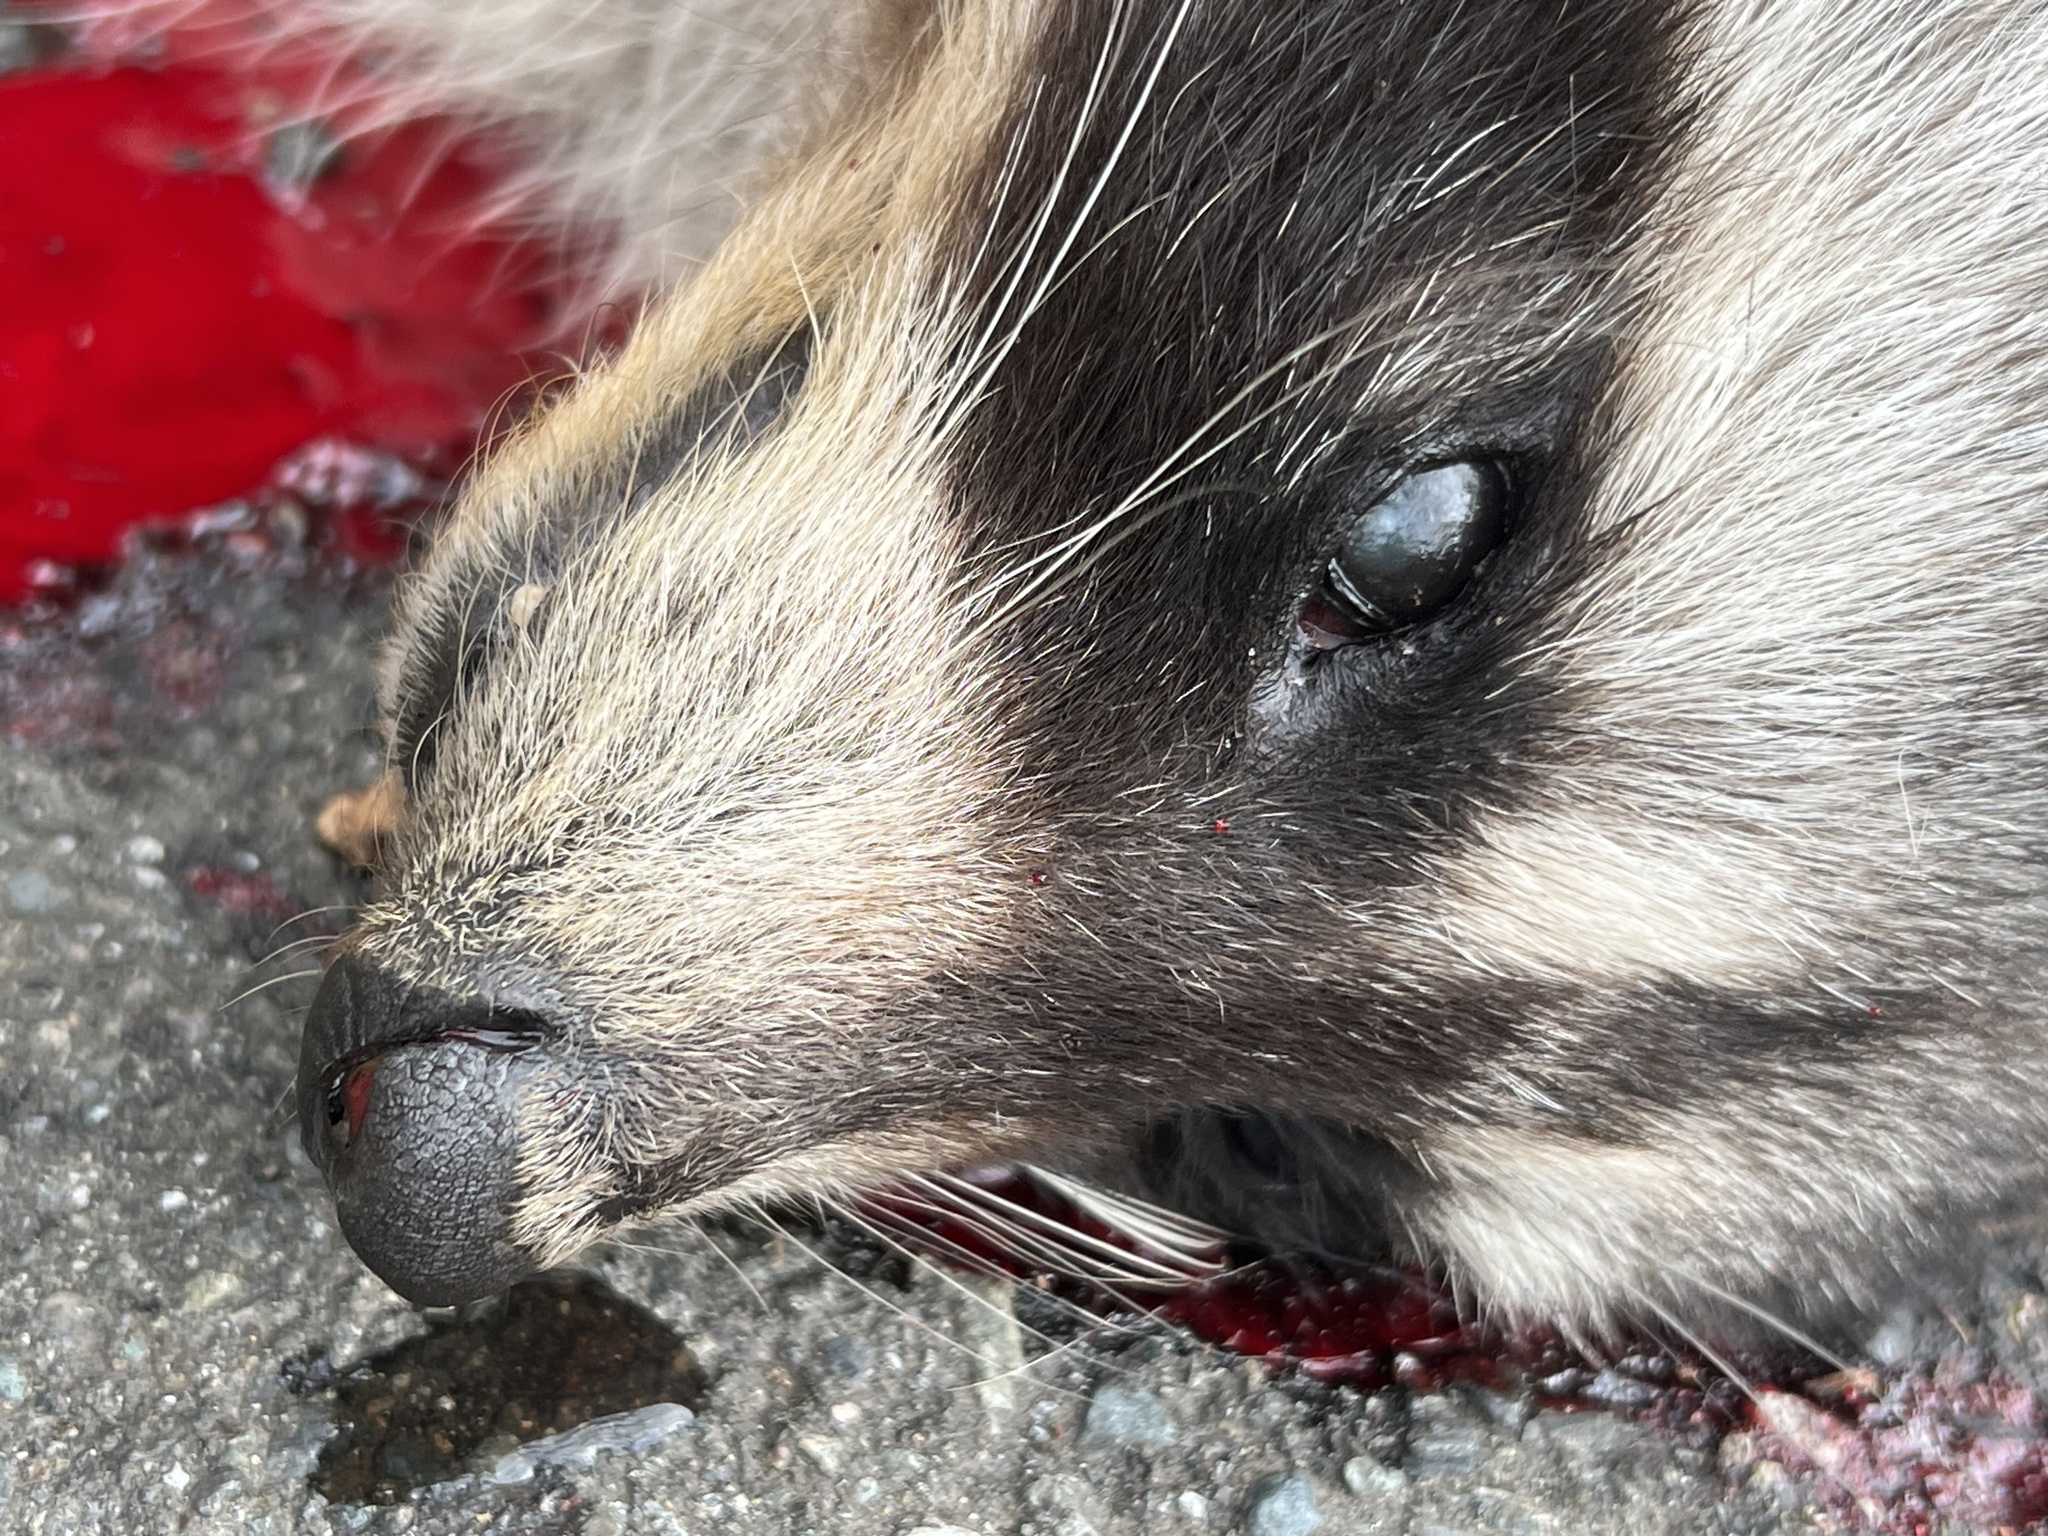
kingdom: Animalia
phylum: Chordata
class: Mammalia
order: Carnivora
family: Procyonidae
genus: Procyon
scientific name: Procyon lotor
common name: Raccoon
